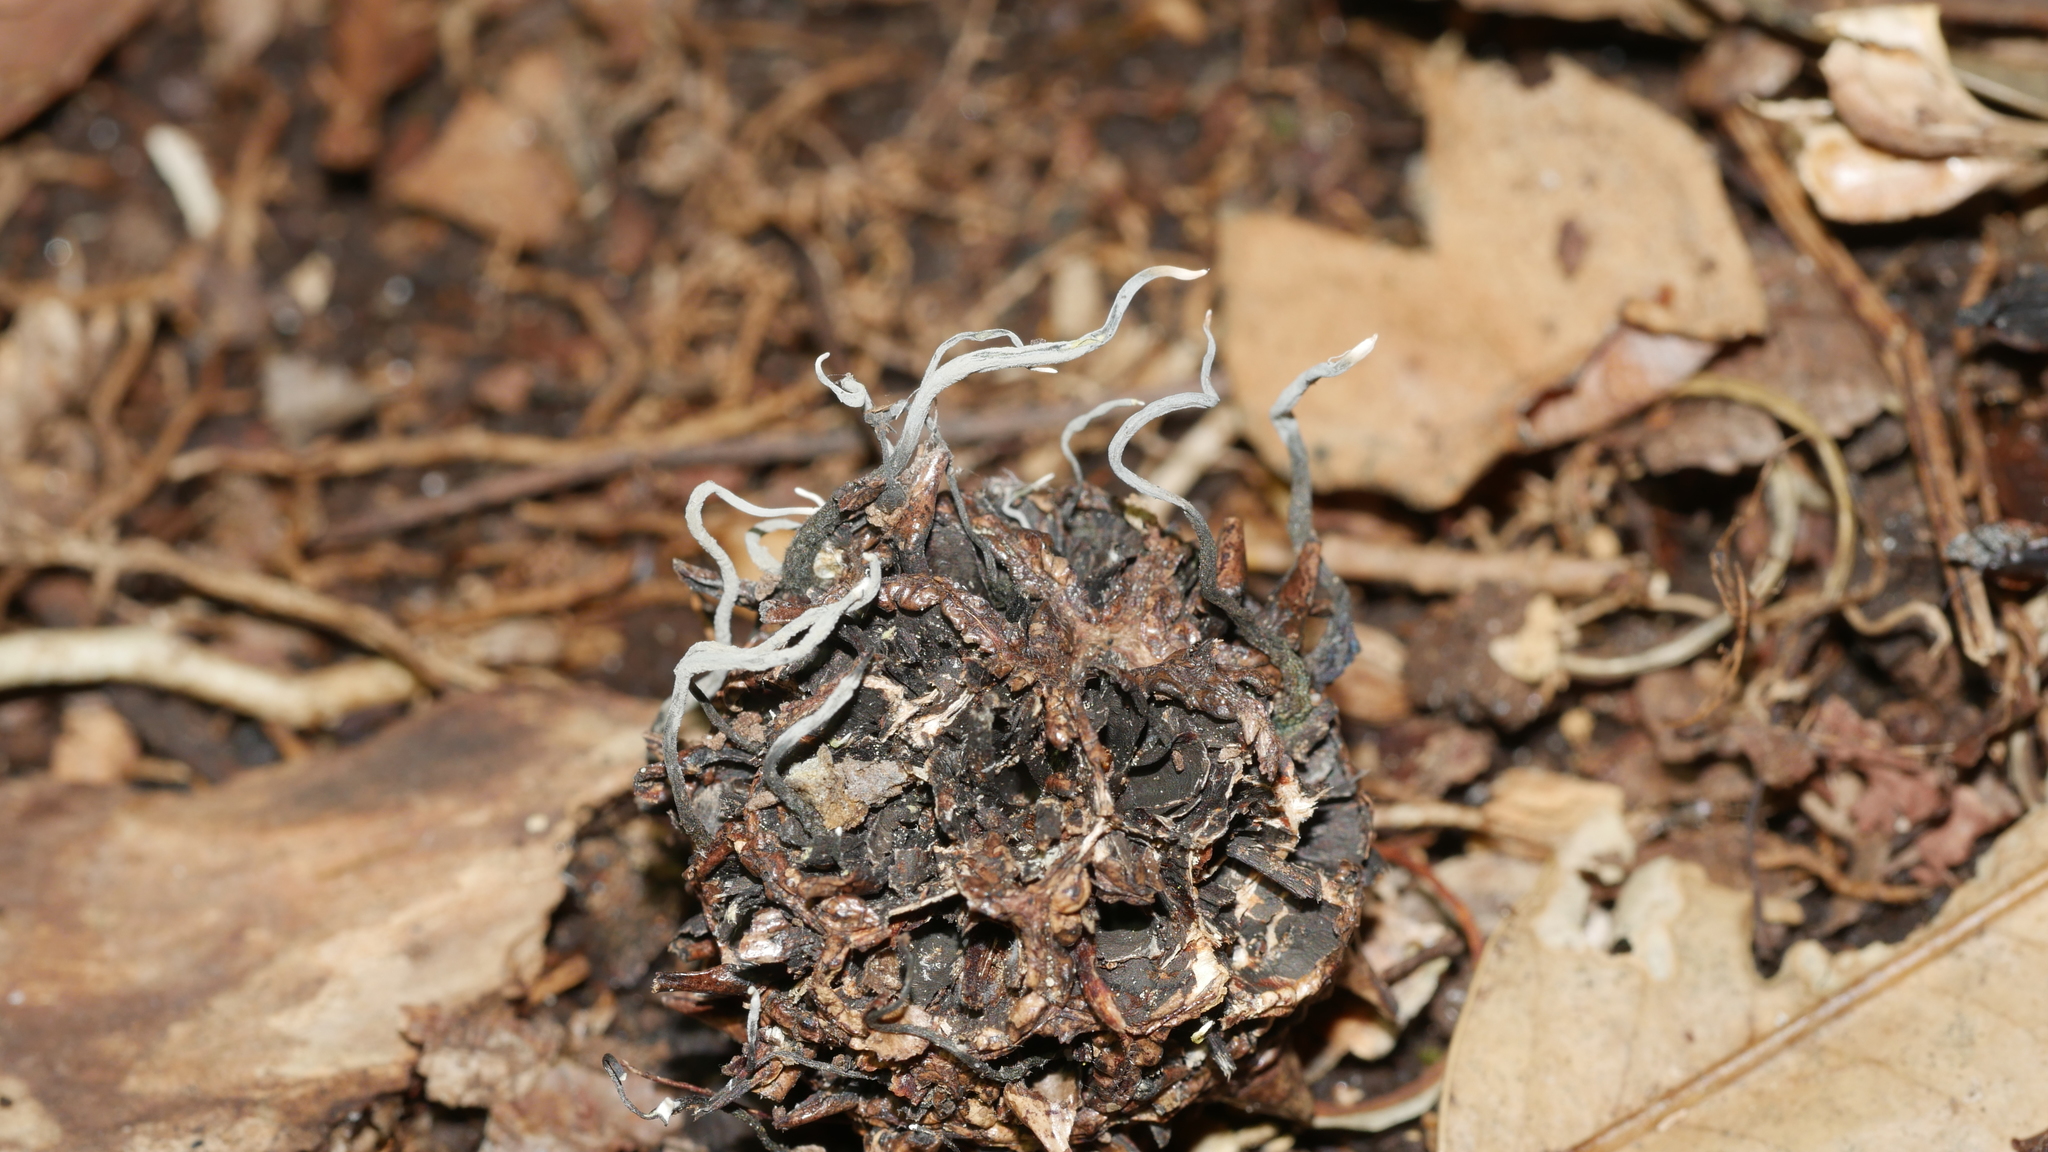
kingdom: Fungi
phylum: Ascomycota
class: Sordariomycetes
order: Xylariales
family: Xylariaceae
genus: Xylaria
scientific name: Xylaria liquidambaris
